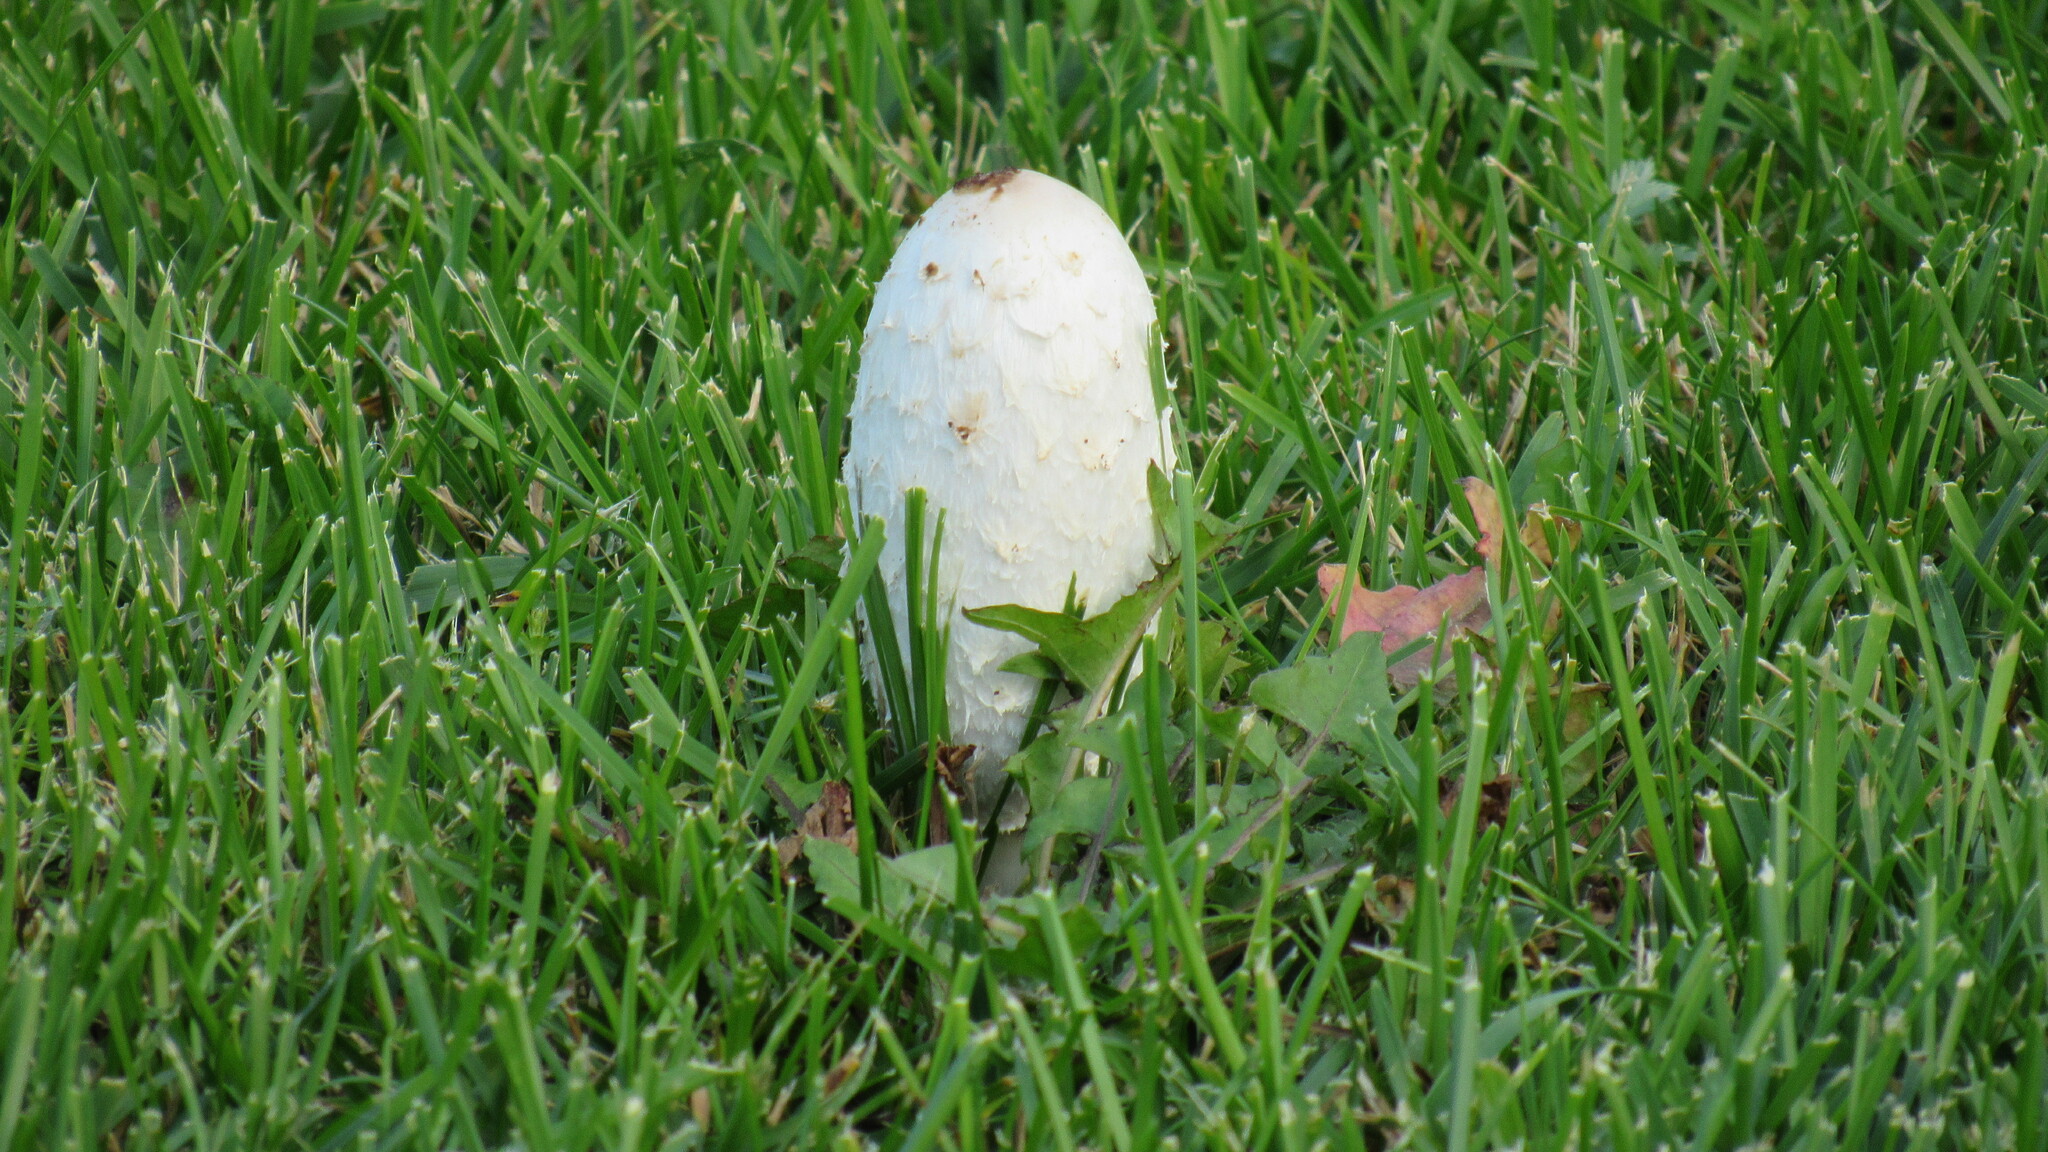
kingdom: Fungi
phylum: Basidiomycota
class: Agaricomycetes
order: Agaricales
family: Agaricaceae
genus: Coprinus
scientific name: Coprinus comatus
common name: Lawyer's wig
